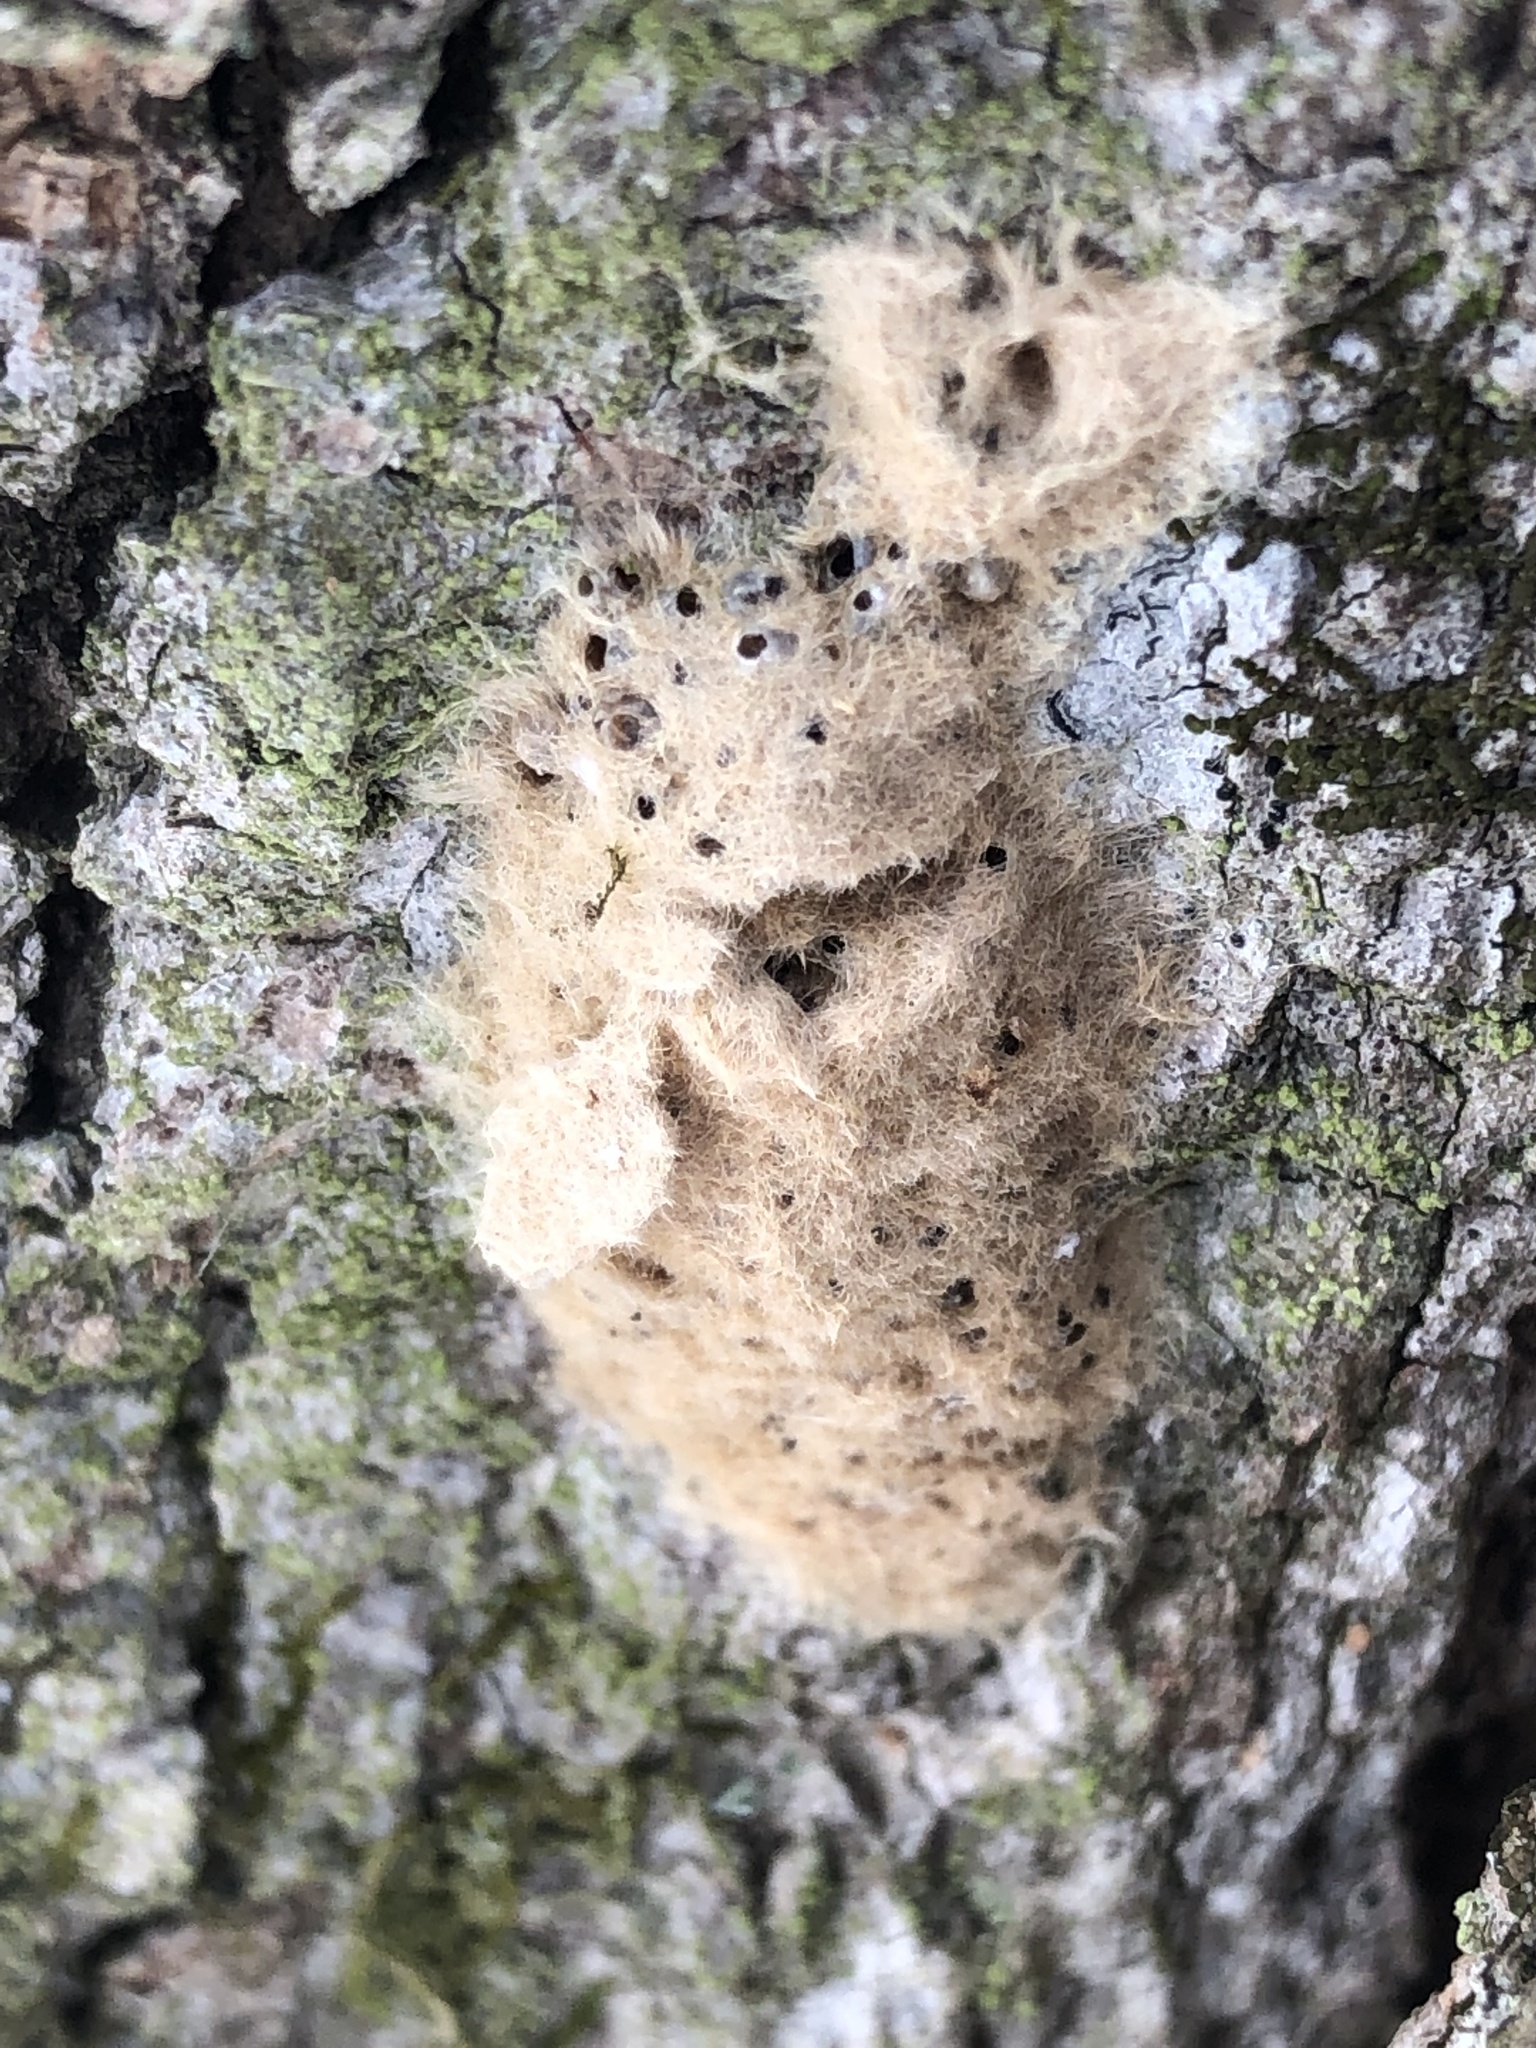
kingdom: Animalia
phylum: Arthropoda
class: Insecta
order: Lepidoptera
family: Erebidae
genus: Lymantria
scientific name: Lymantria dispar
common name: Gypsy moth
